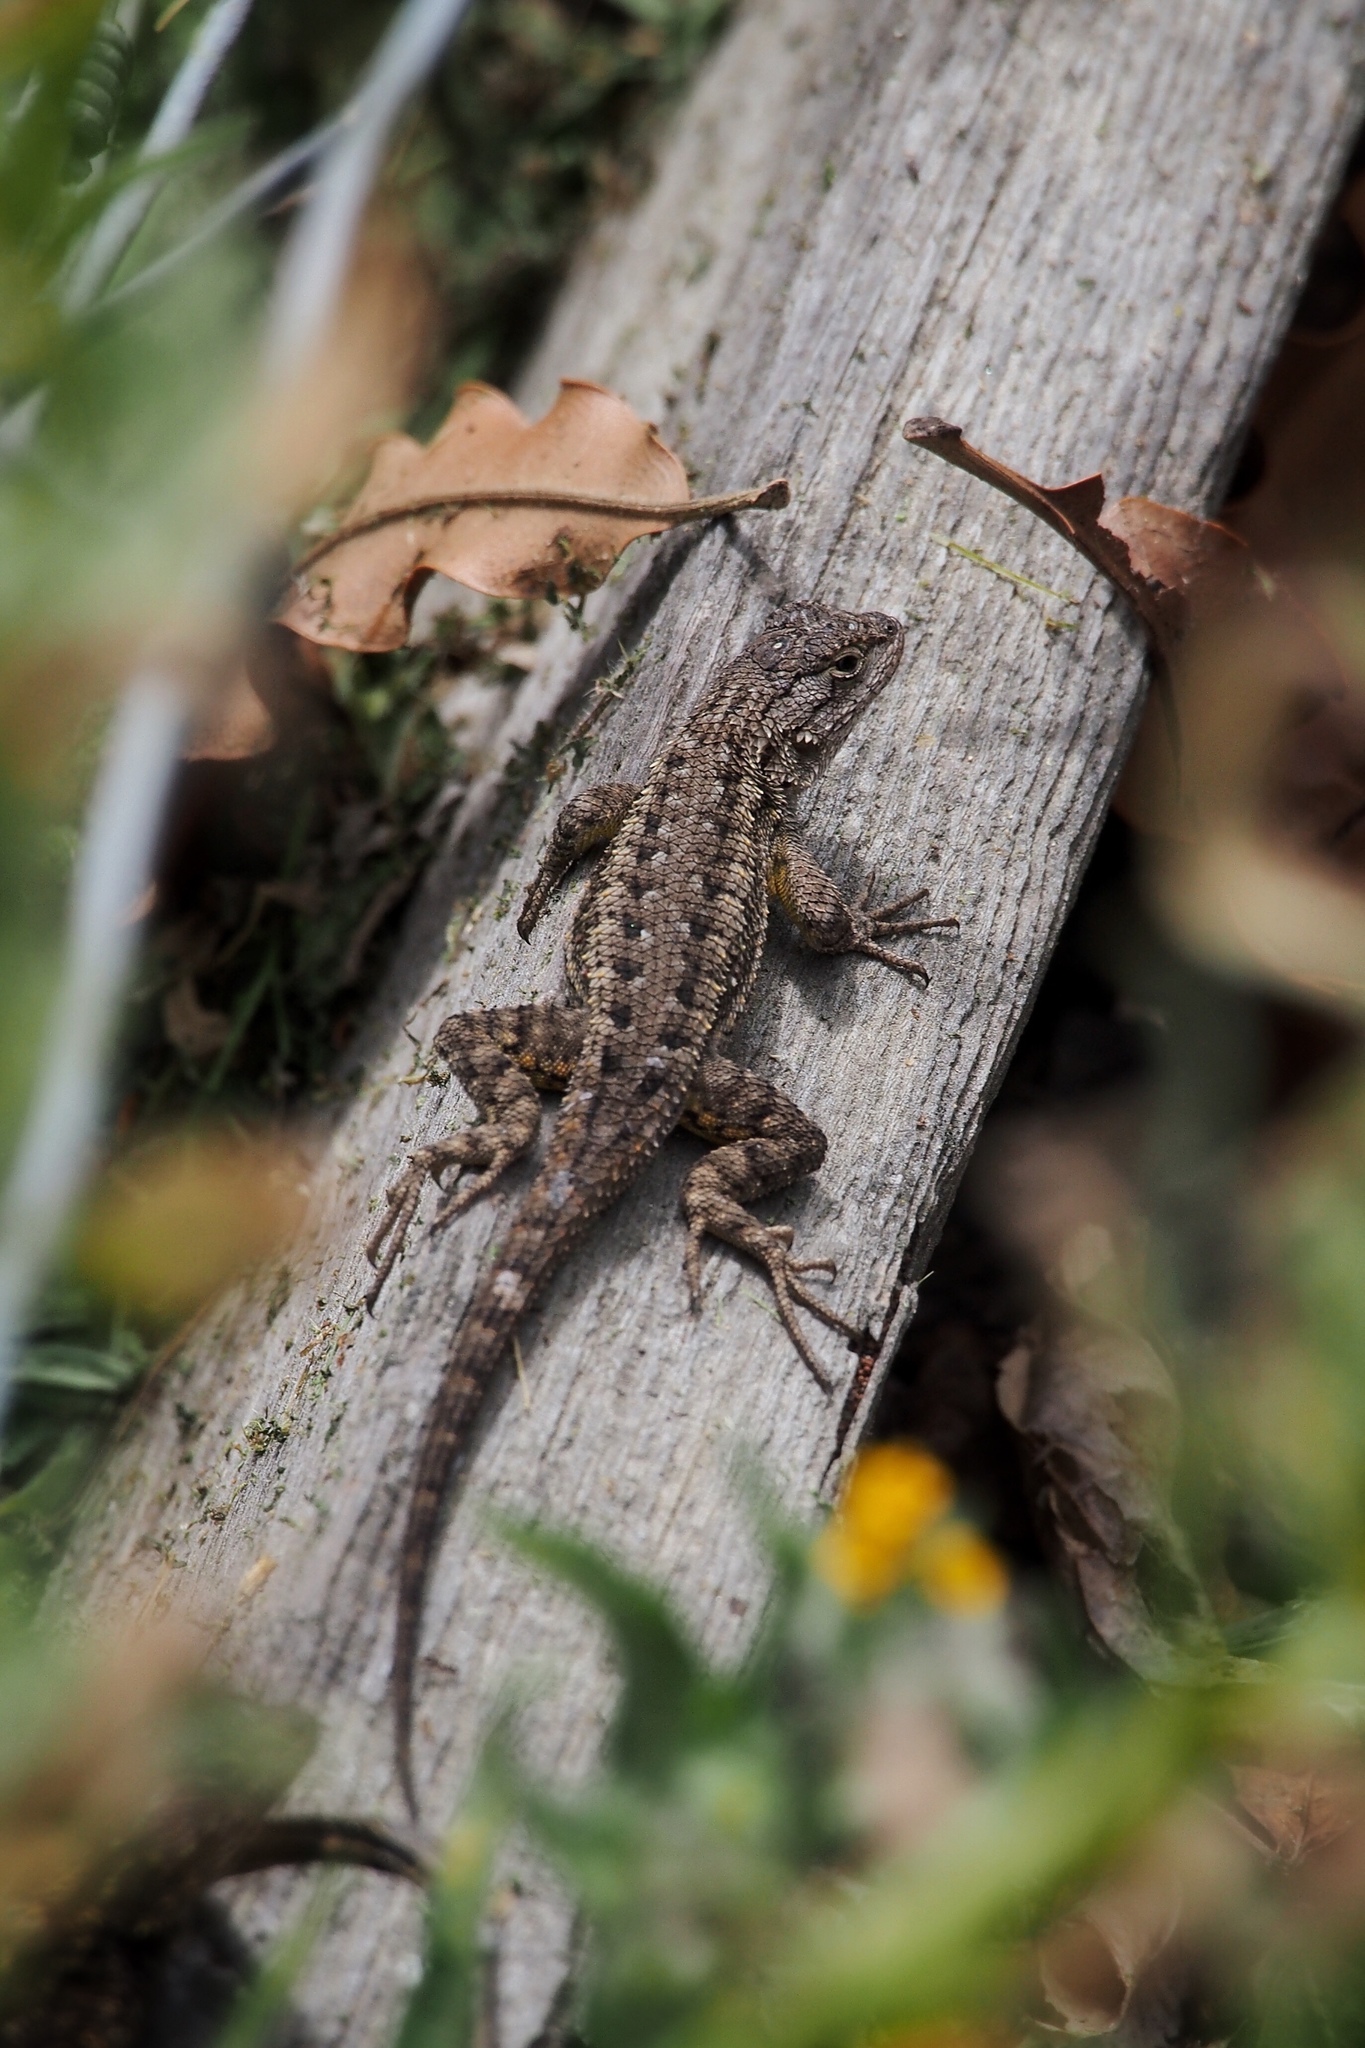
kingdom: Animalia
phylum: Chordata
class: Squamata
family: Phrynosomatidae
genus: Sceloporus
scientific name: Sceloporus occidentalis
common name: Western fence lizard
